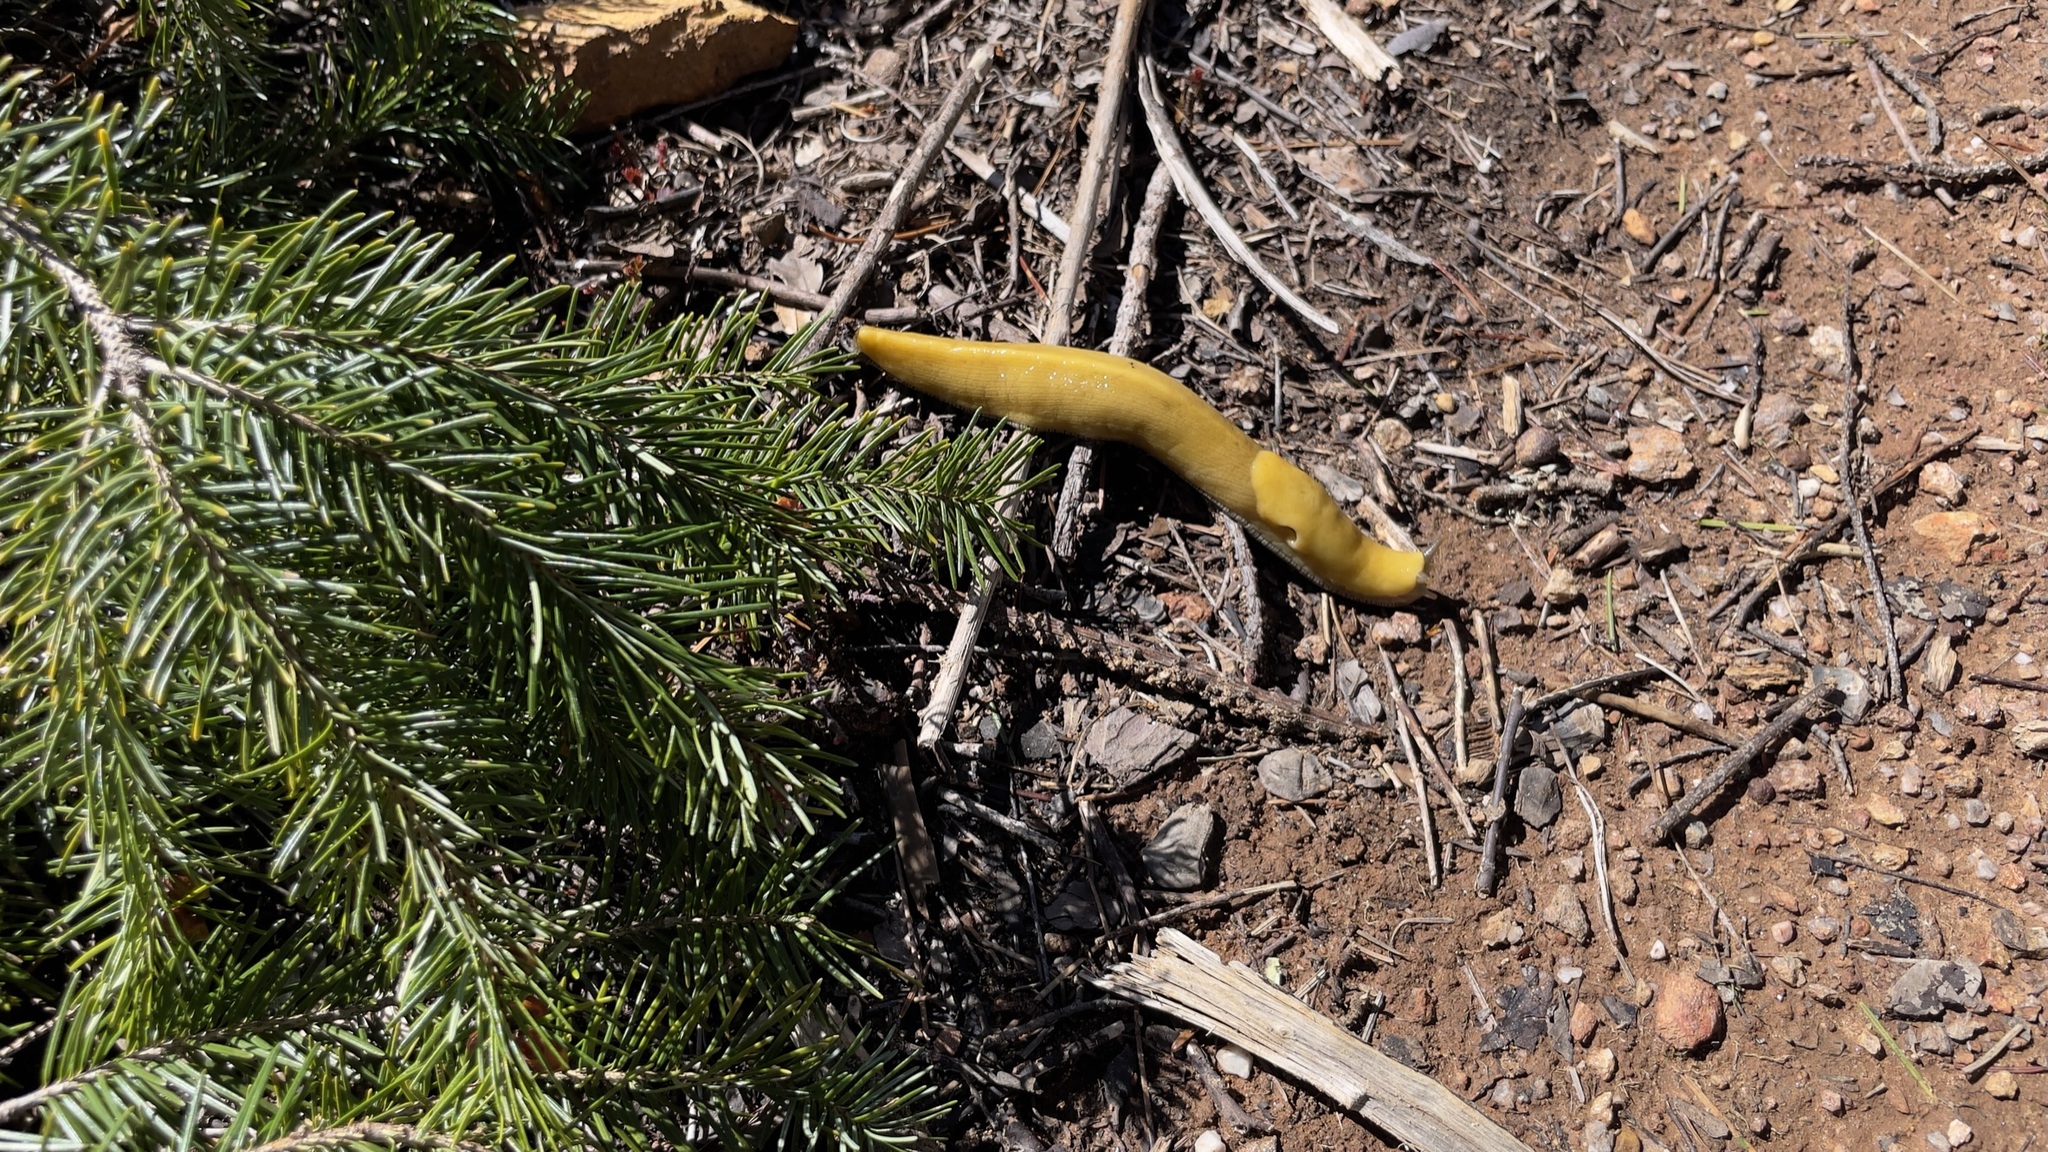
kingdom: Animalia
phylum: Mollusca
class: Gastropoda
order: Stylommatophora
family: Ariolimacidae
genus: Ariolimax
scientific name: Ariolimax dolichophallus
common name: Slender banana slug
